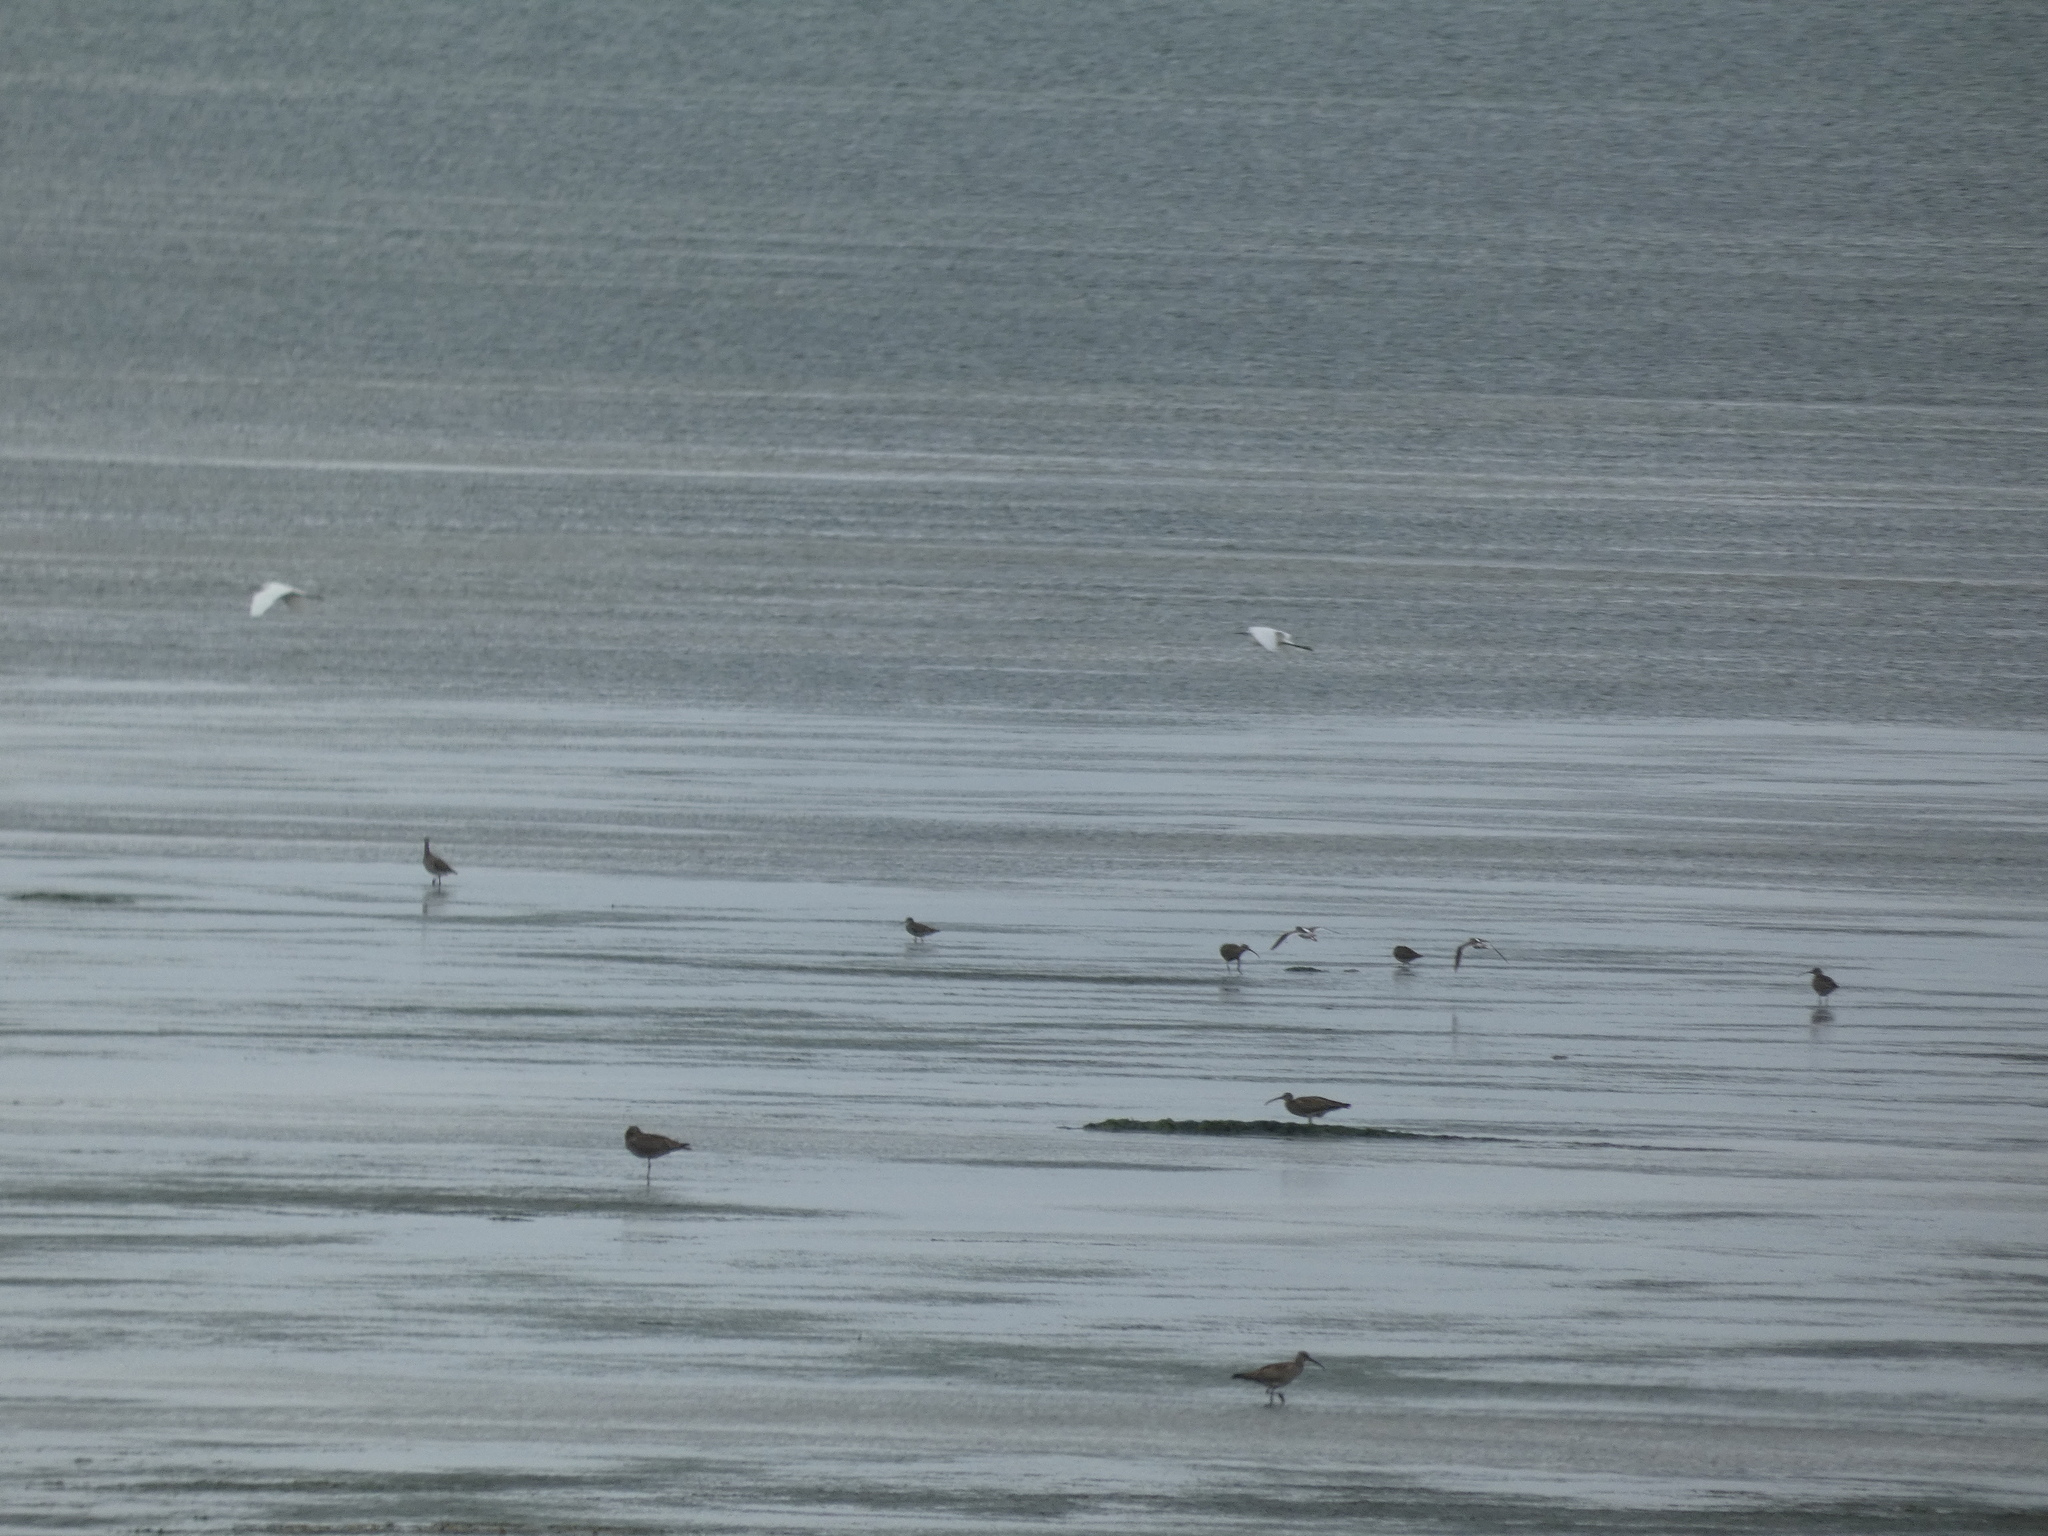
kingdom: Animalia
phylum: Chordata
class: Aves
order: Pelecaniformes
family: Ardeidae
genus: Egretta
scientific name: Egretta garzetta
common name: Little egret
